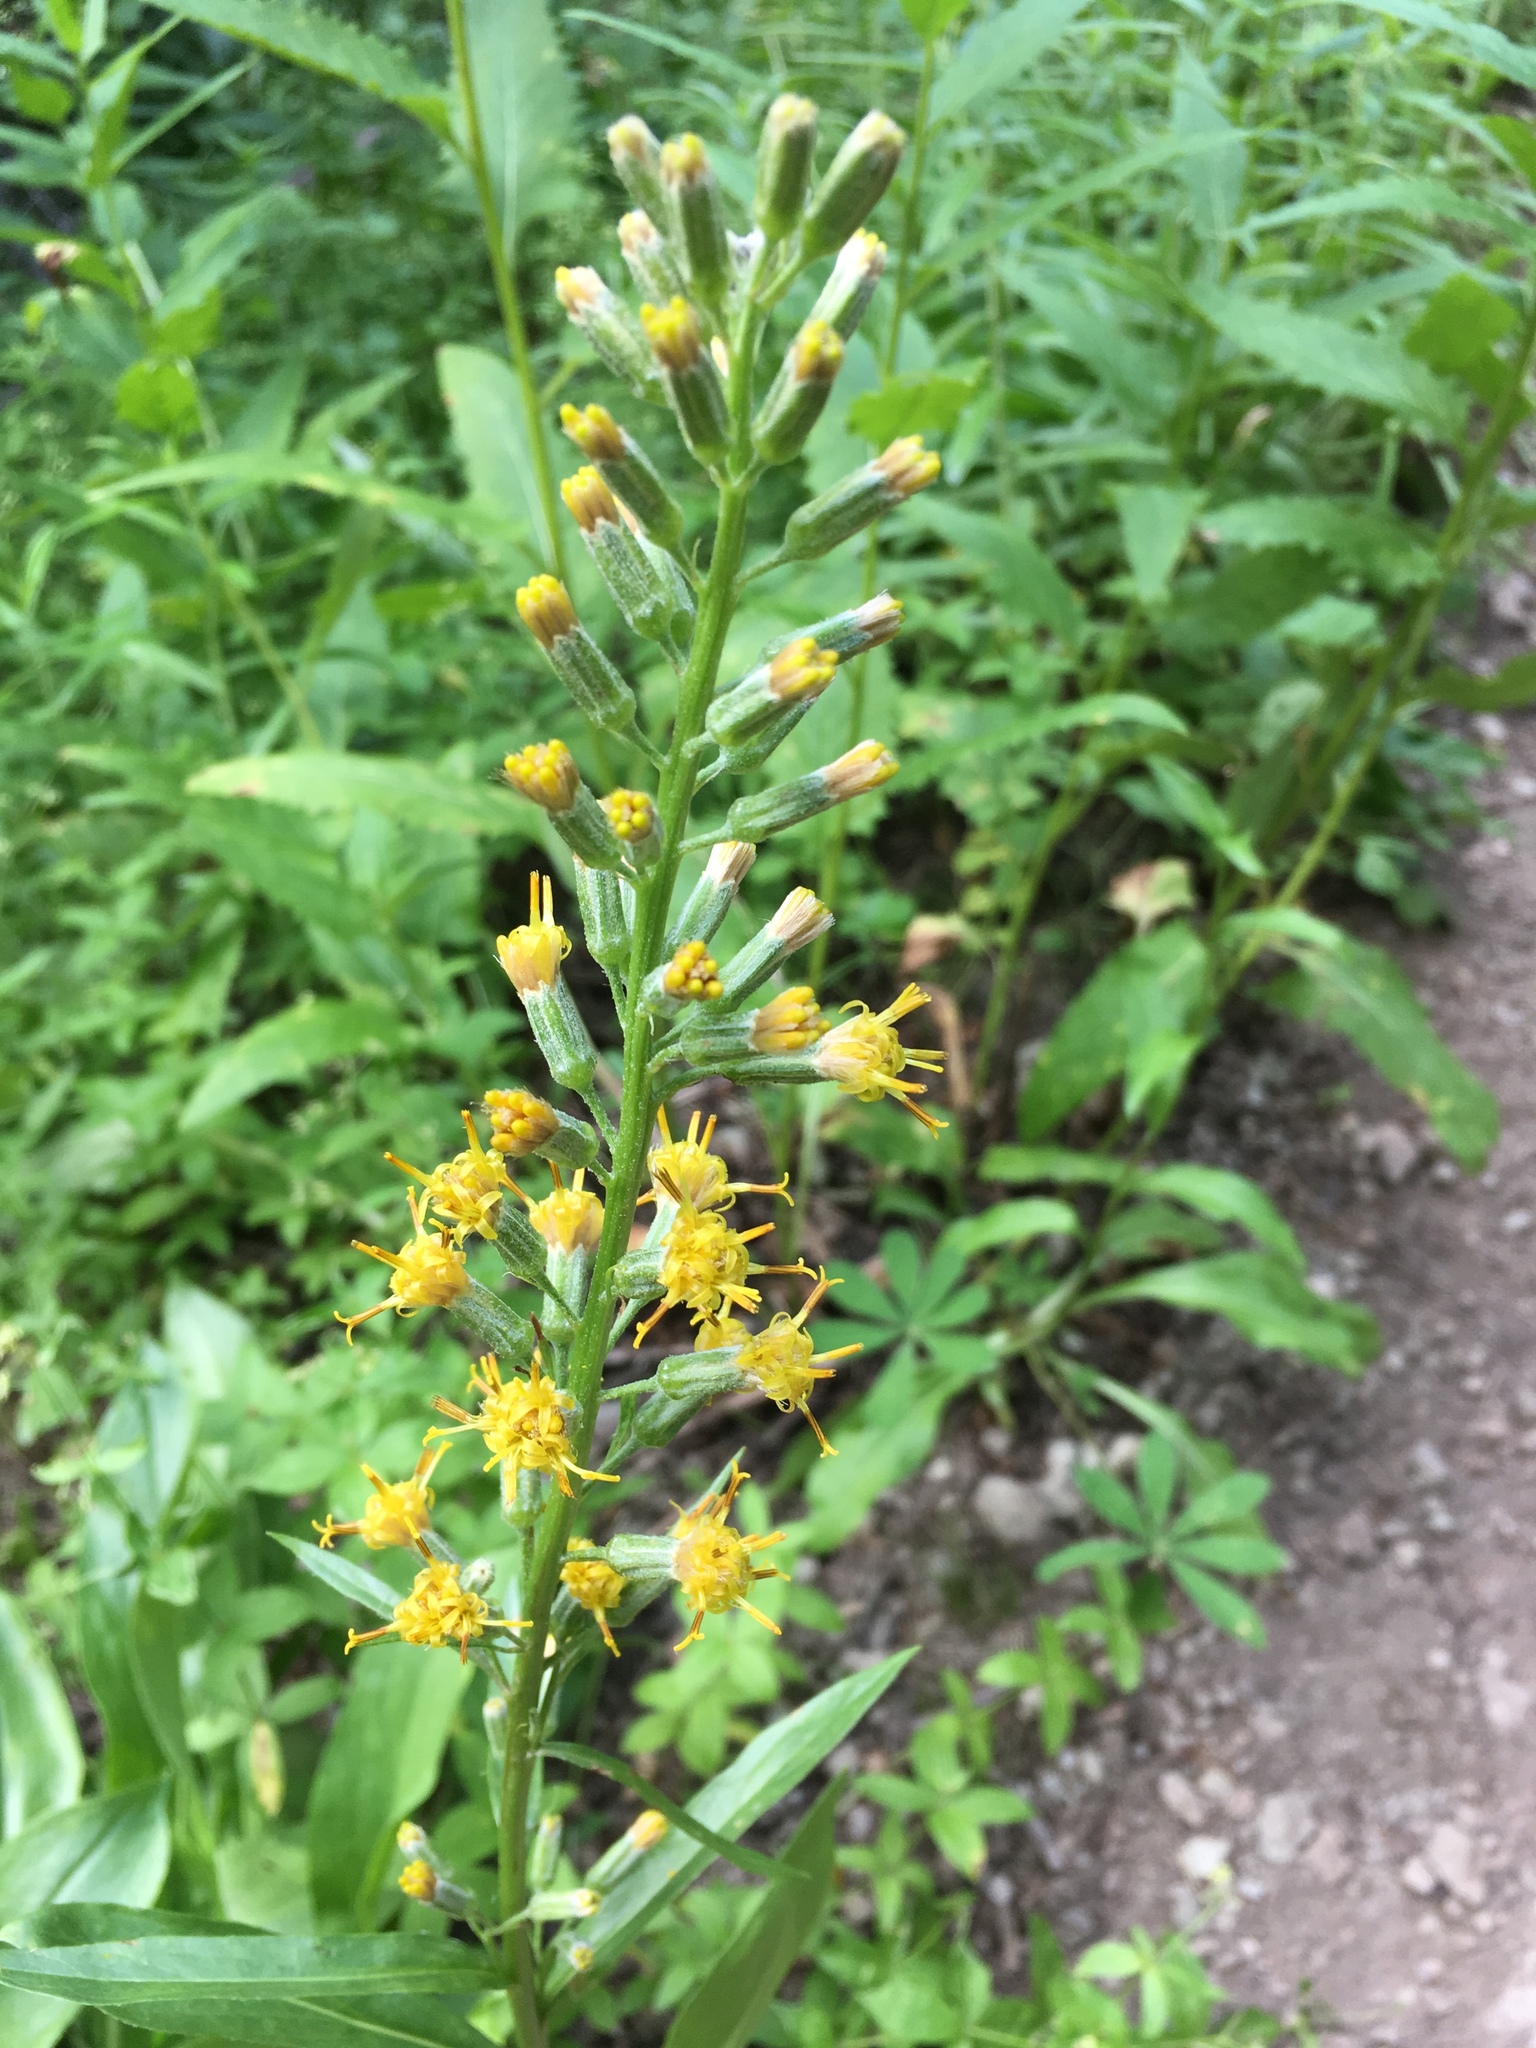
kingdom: Plantae
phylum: Tracheophyta
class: Magnoliopsida
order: Asterales
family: Asteraceae
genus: Rainiera
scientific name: Rainiera stricta
